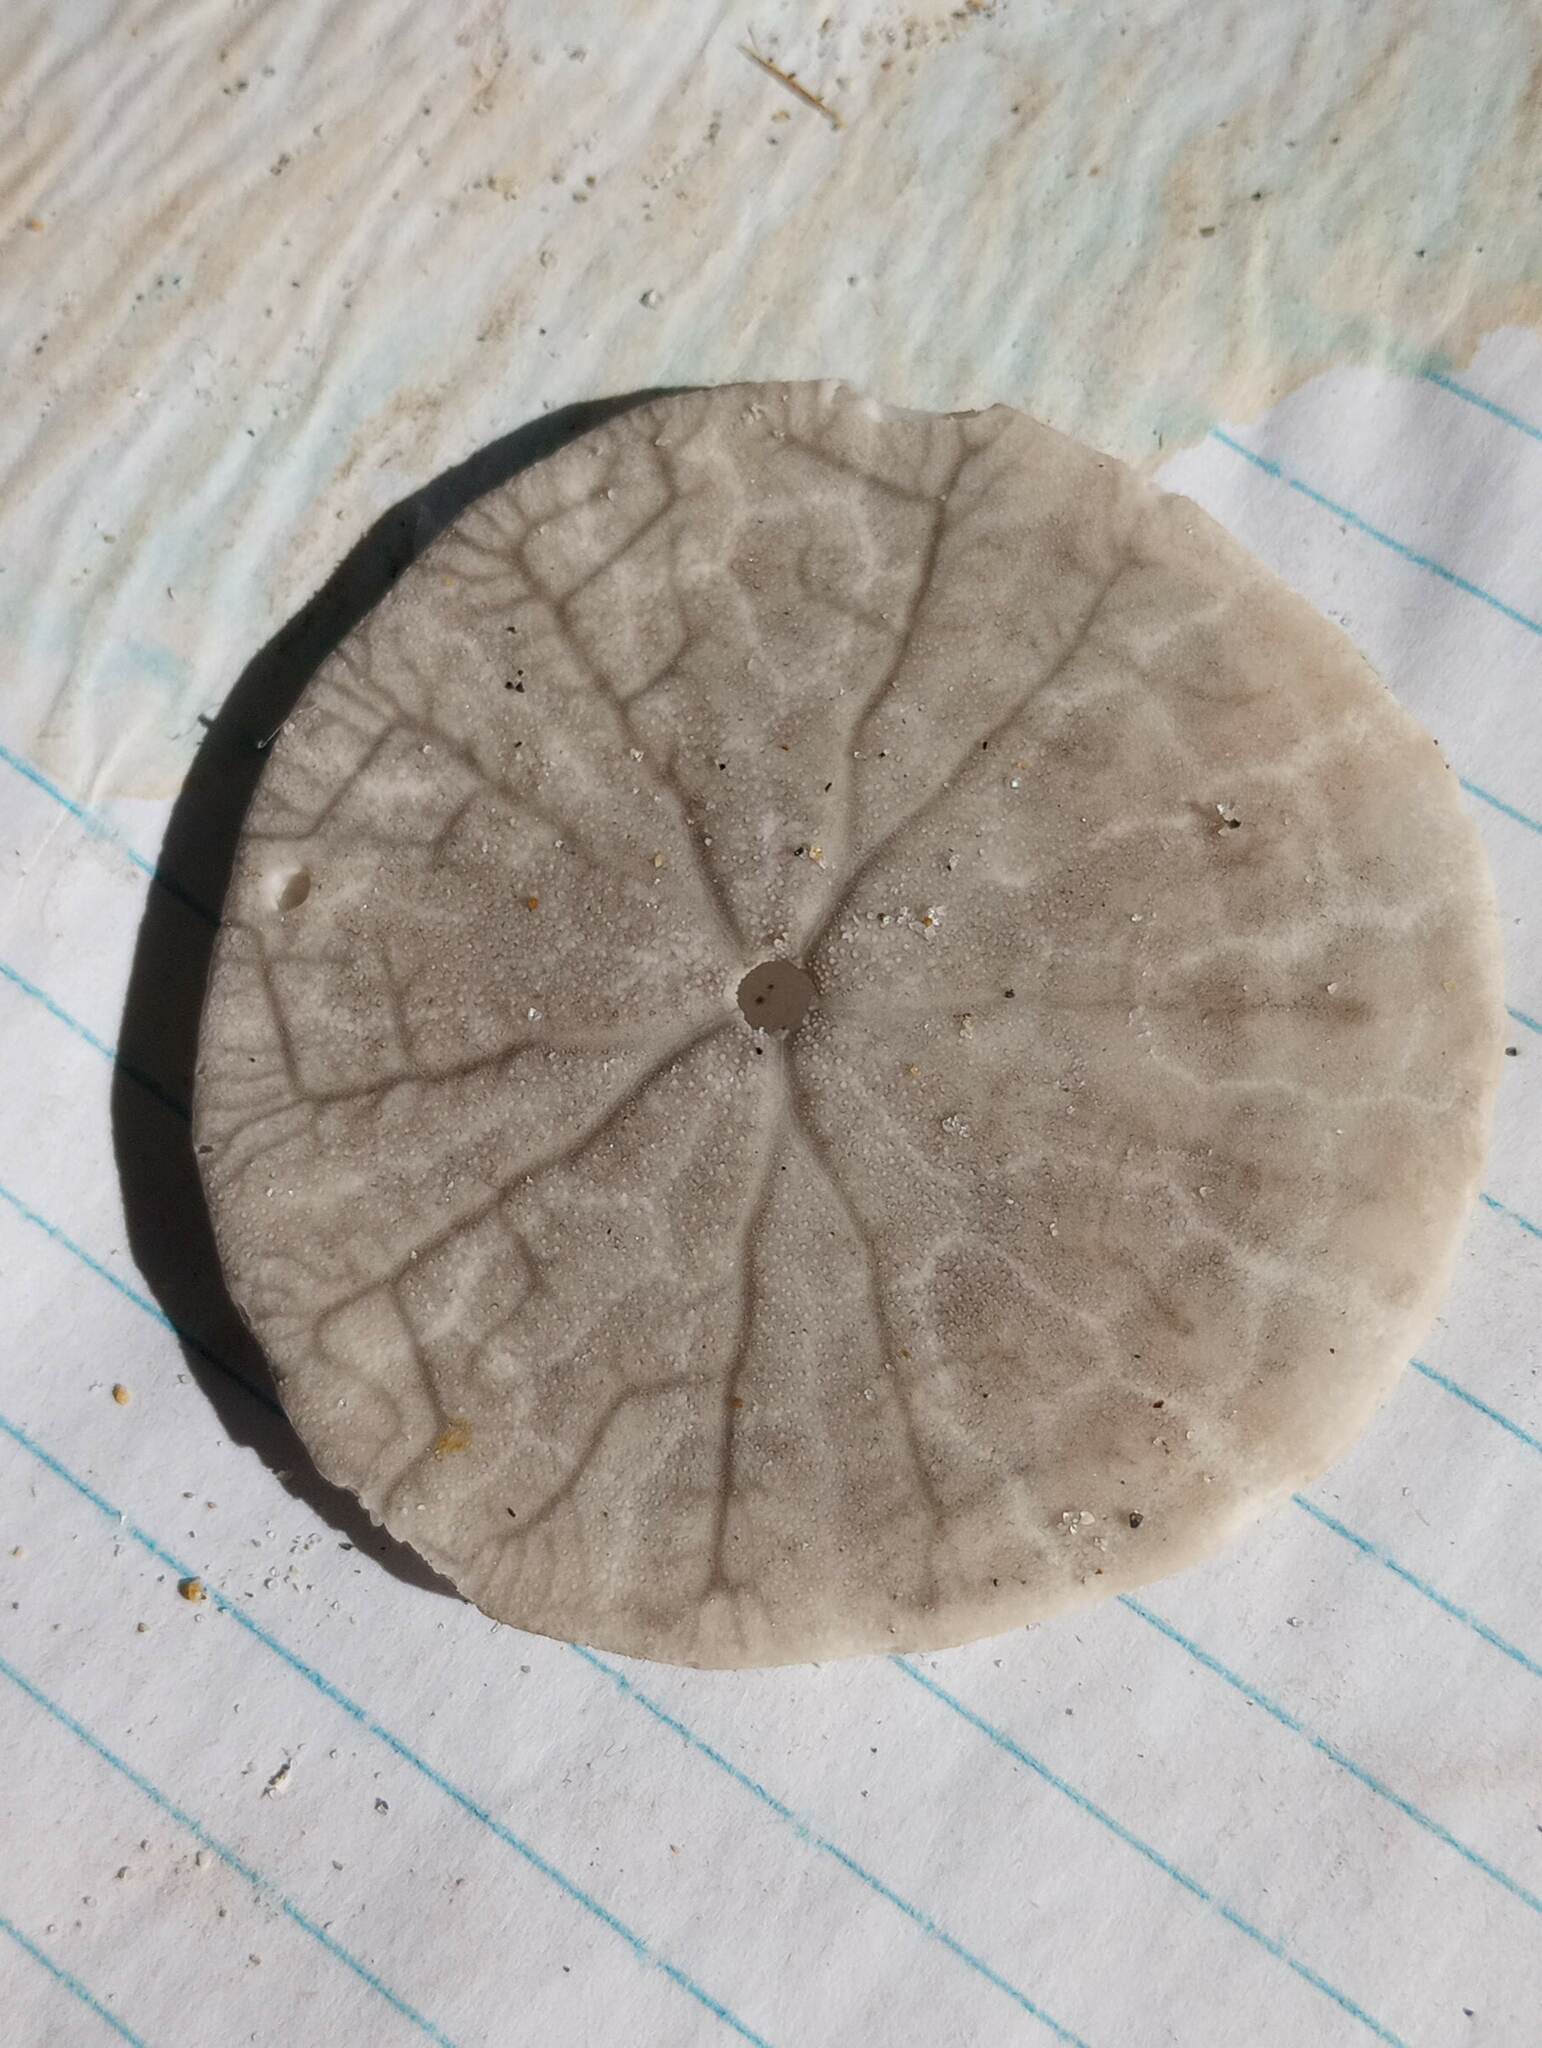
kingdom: Animalia
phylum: Echinodermata
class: Echinoidea
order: Echinolampadacea
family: Dendrasteridae
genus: Dendraster
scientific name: Dendraster excentricus
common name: Eccentric sand dollar sea urchin
